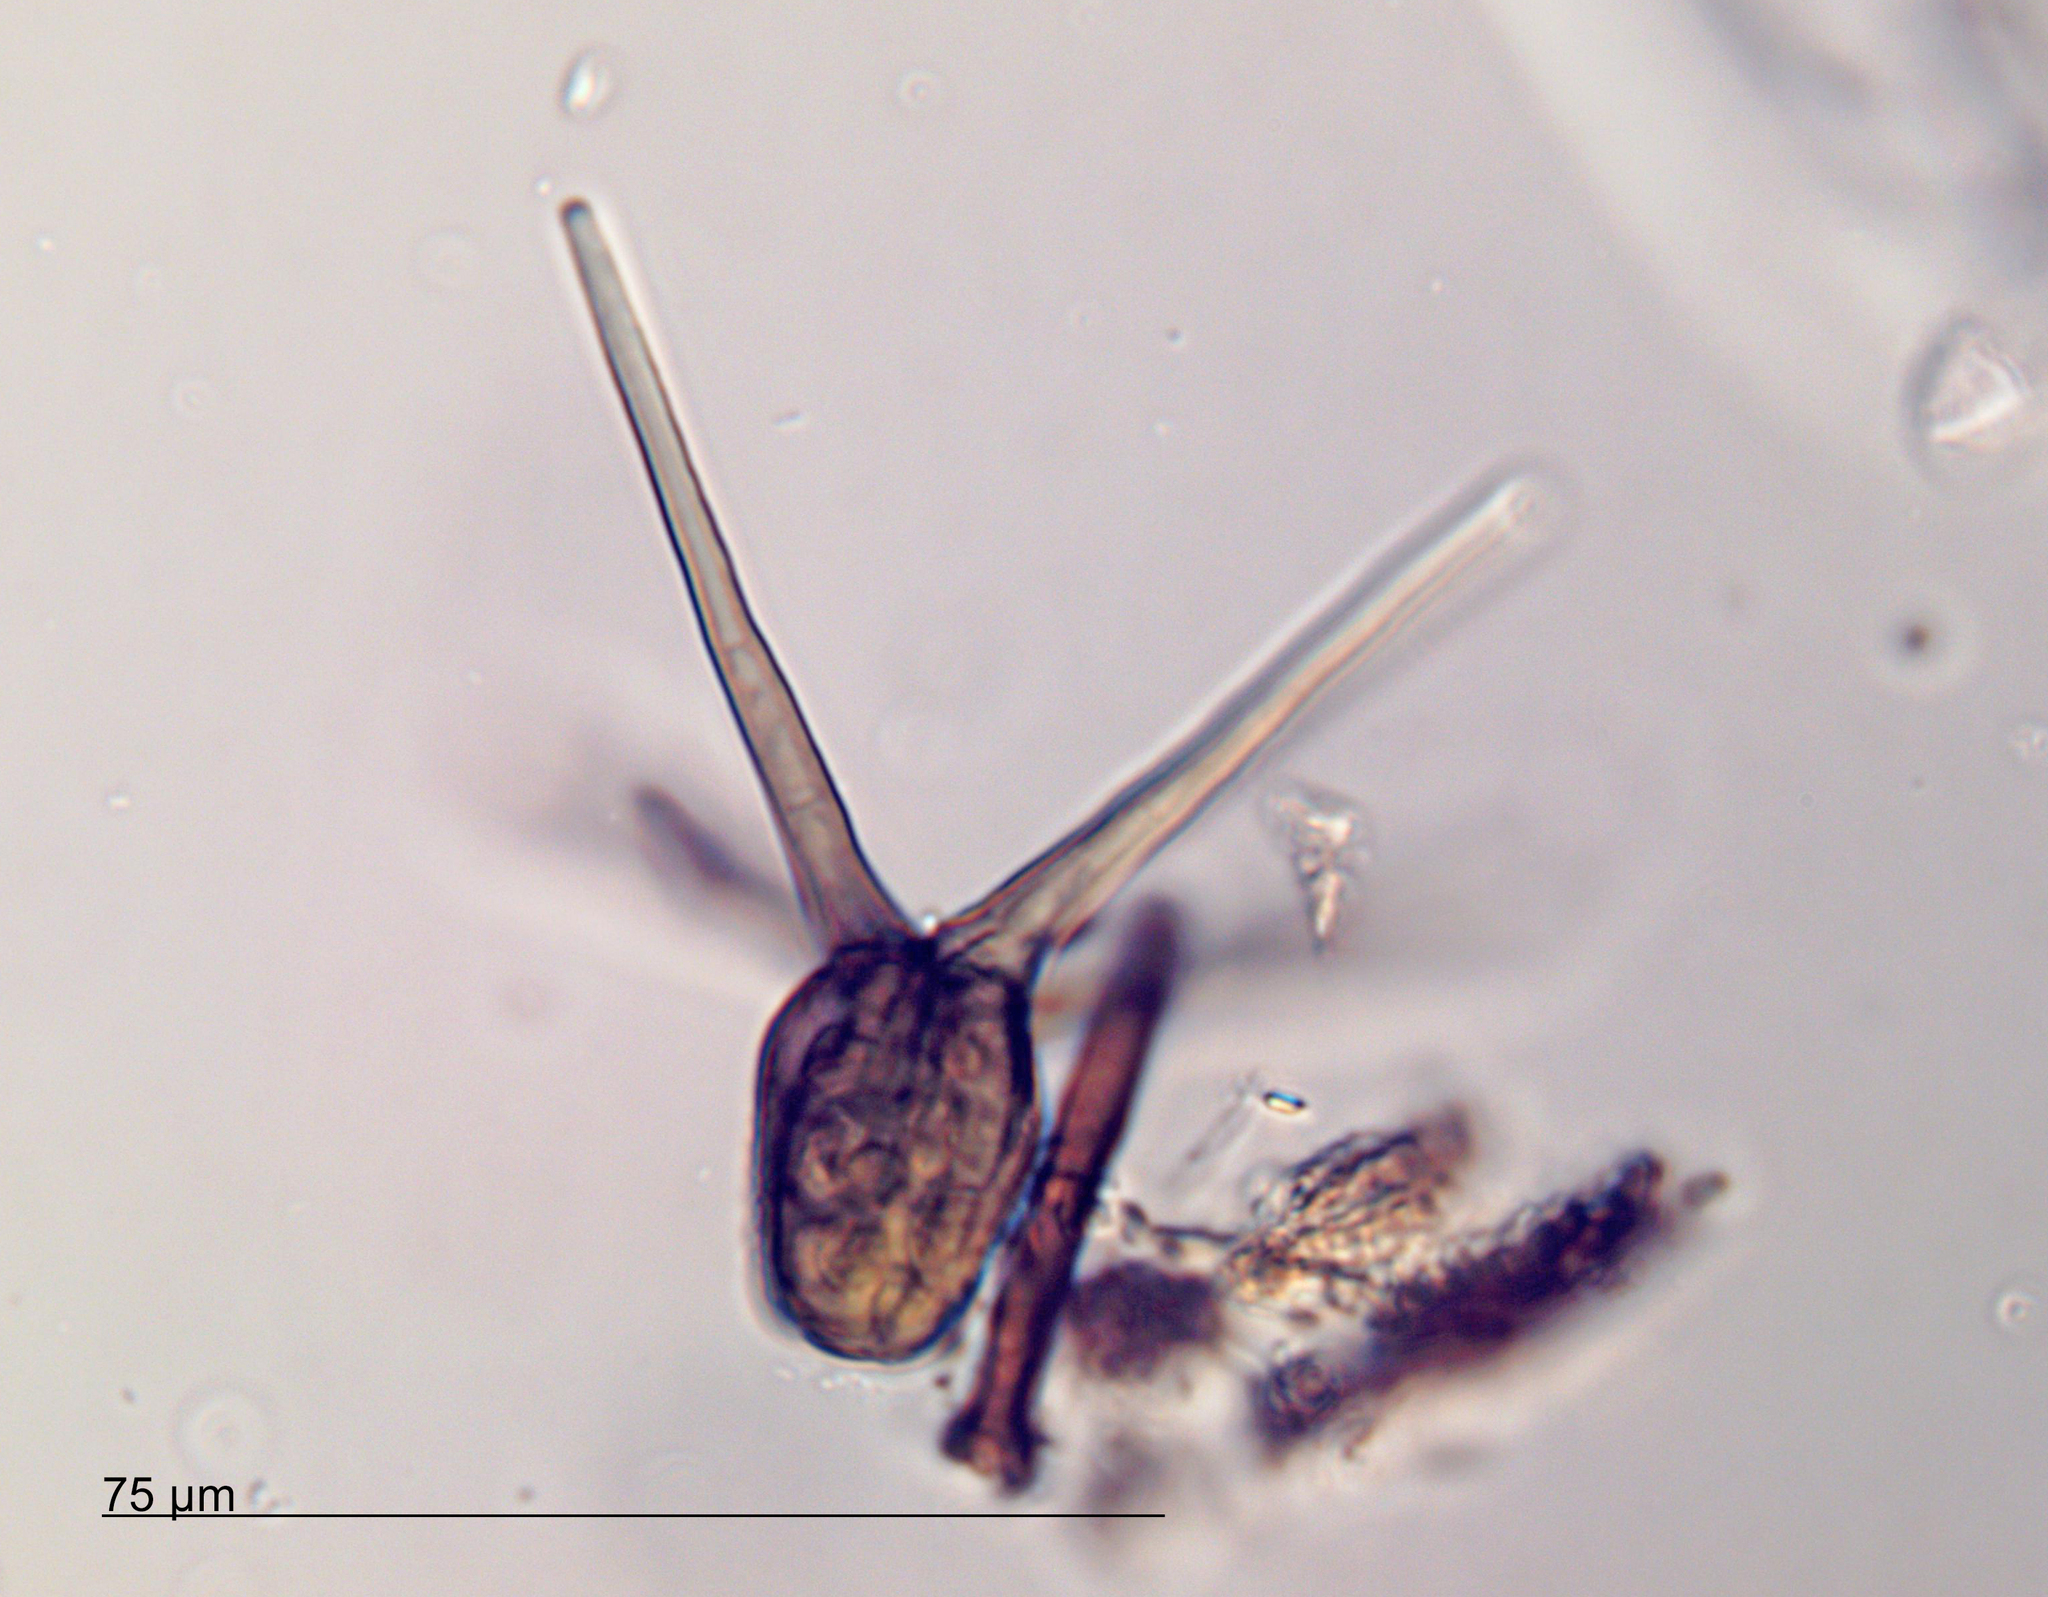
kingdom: Fungi
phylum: Ascomycota
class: Dothideomycetes
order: Pleosporales
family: Tetraplosphaeriaceae
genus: Tetraploa
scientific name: Tetraploa aristata
